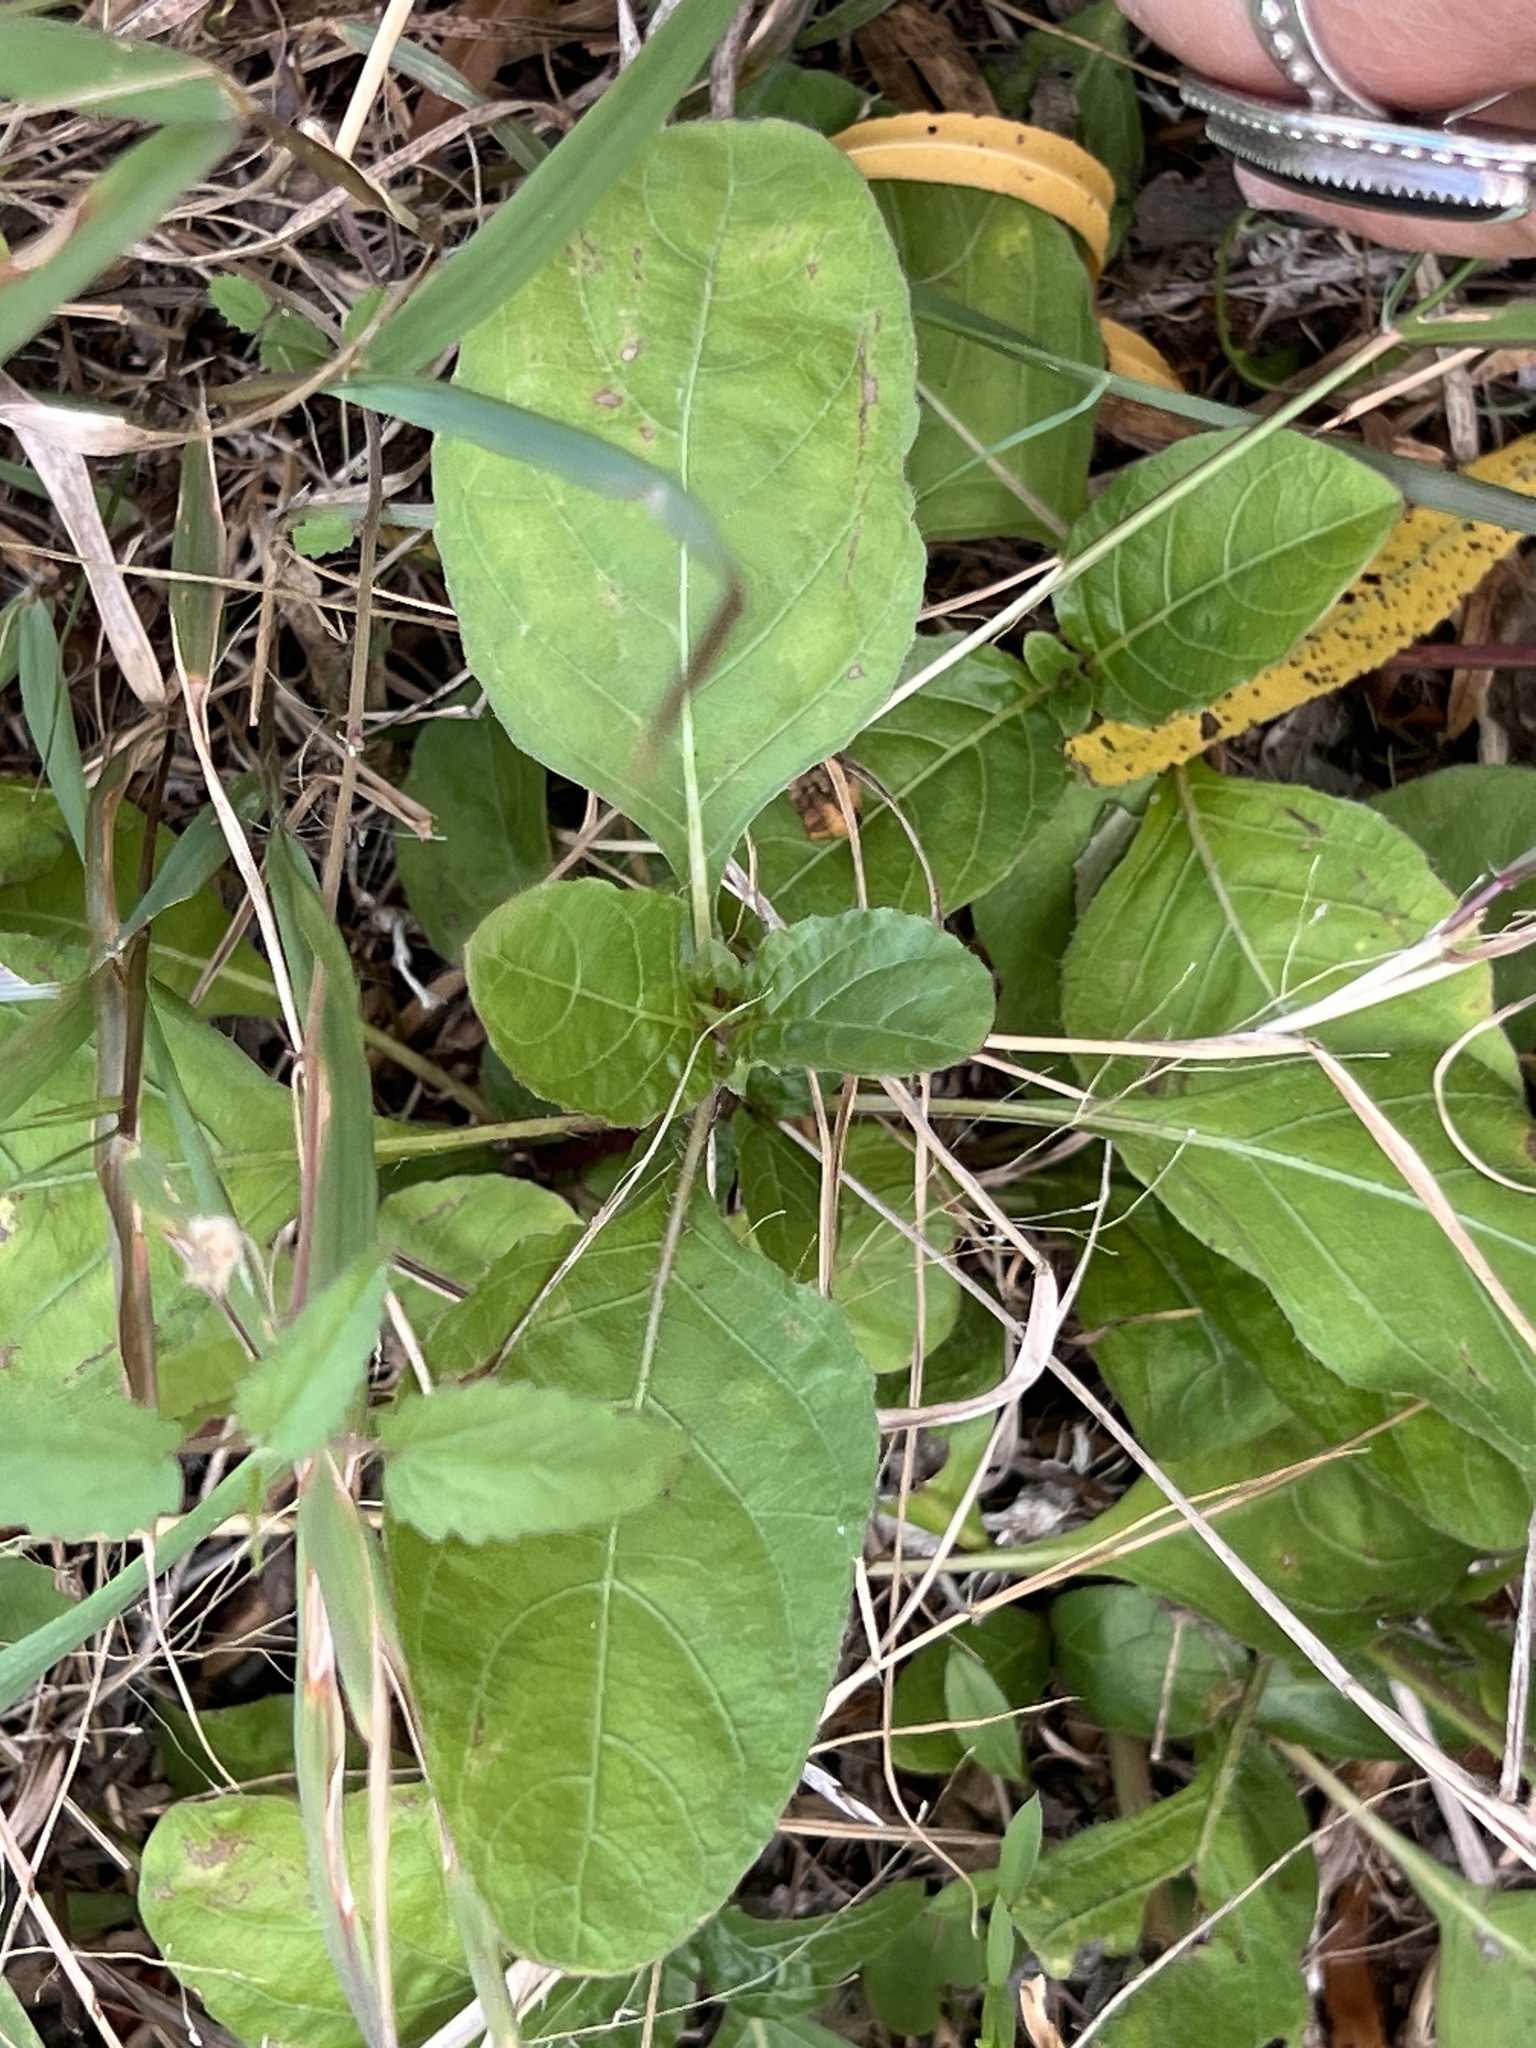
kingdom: Plantae
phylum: Tracheophyta
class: Magnoliopsida
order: Lamiales
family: Acanthaceae
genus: Ruellia
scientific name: Ruellia ciliatiflora
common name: Hairyflower wild petunia
